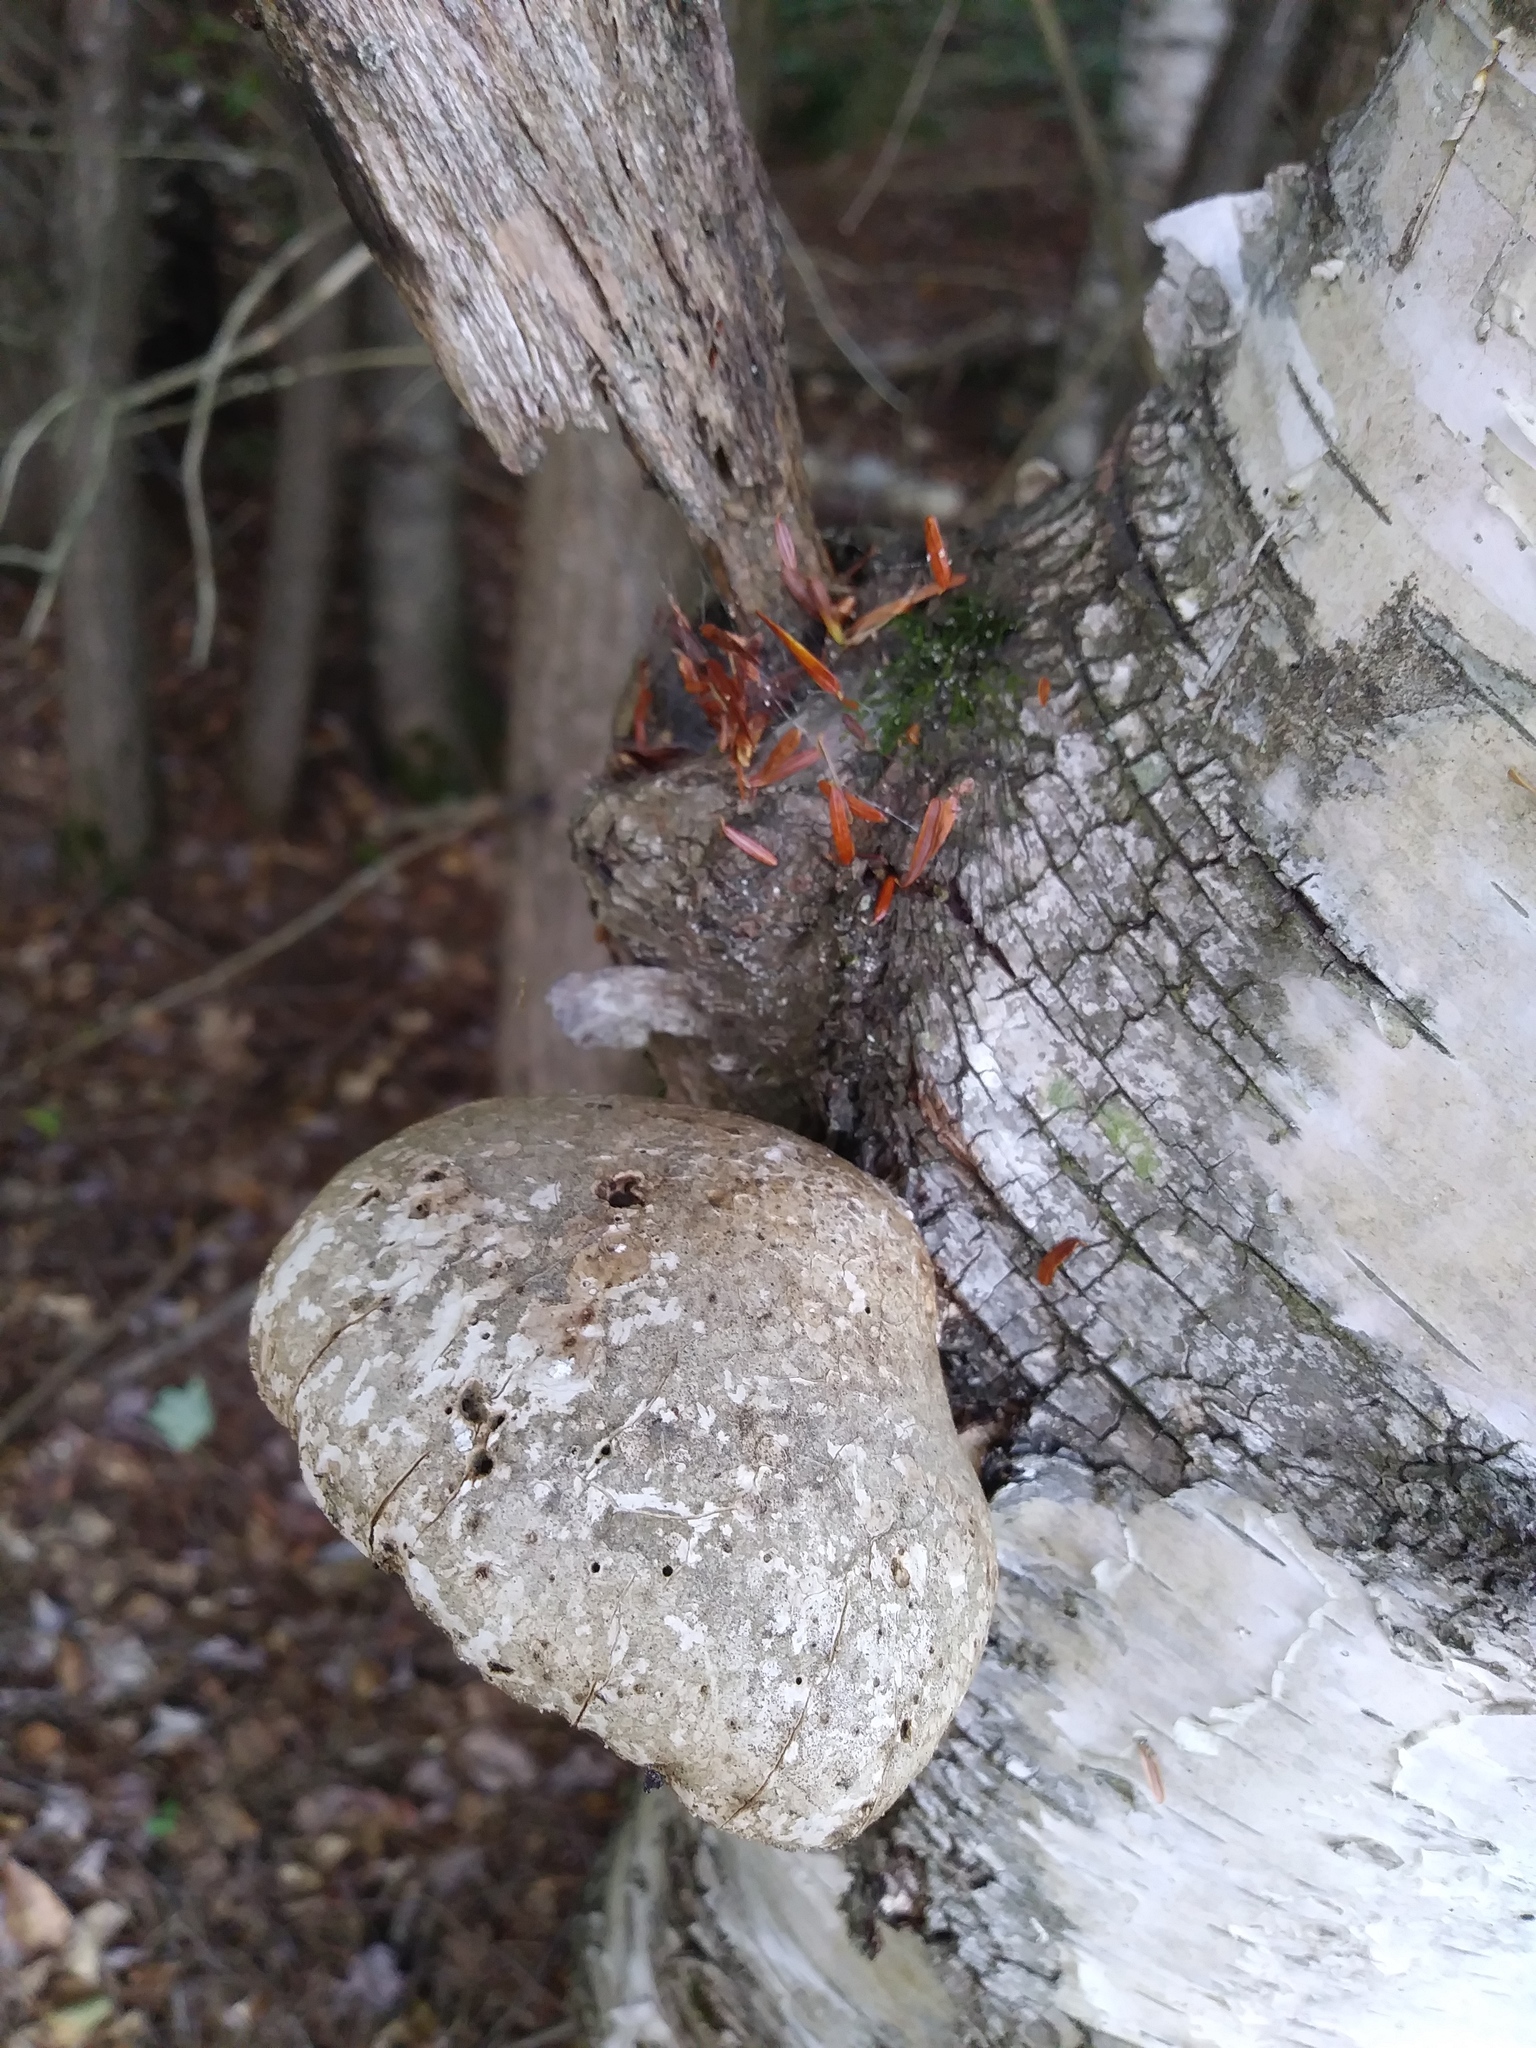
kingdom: Fungi
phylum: Basidiomycota
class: Agaricomycetes
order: Polyporales
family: Fomitopsidaceae
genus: Fomitopsis
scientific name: Fomitopsis betulina
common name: Birch polypore
